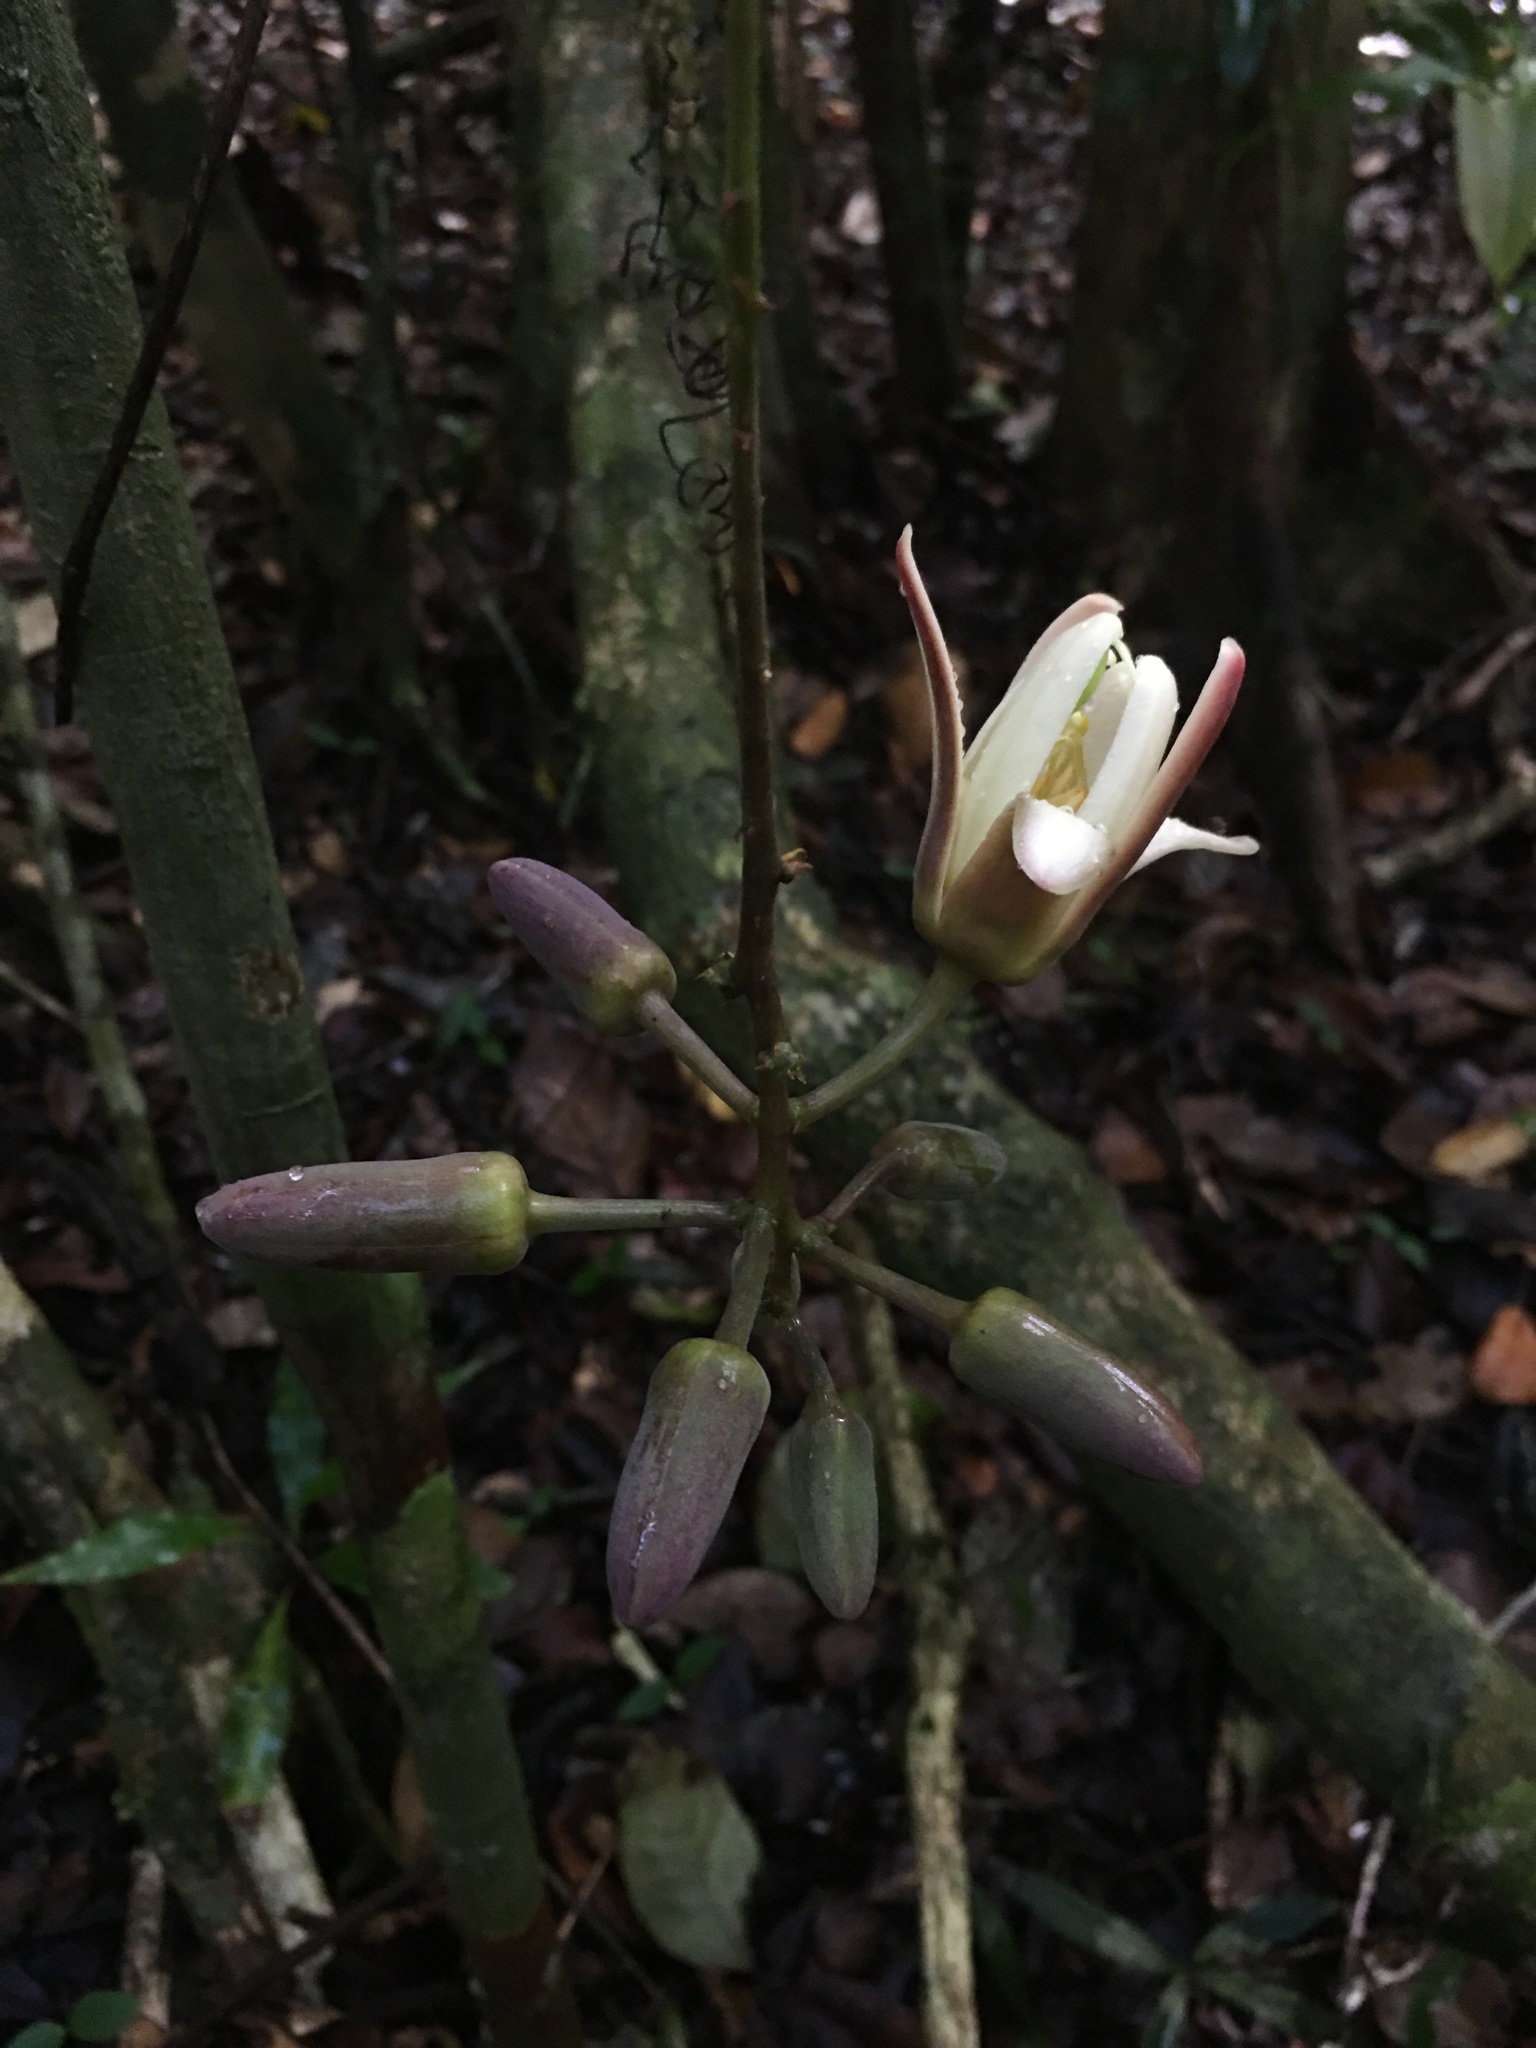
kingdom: Plantae
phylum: Tracheophyta
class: Magnoliopsida
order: Malpighiales
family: Passifloraceae
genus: Passiflora
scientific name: Passiflora contracta
